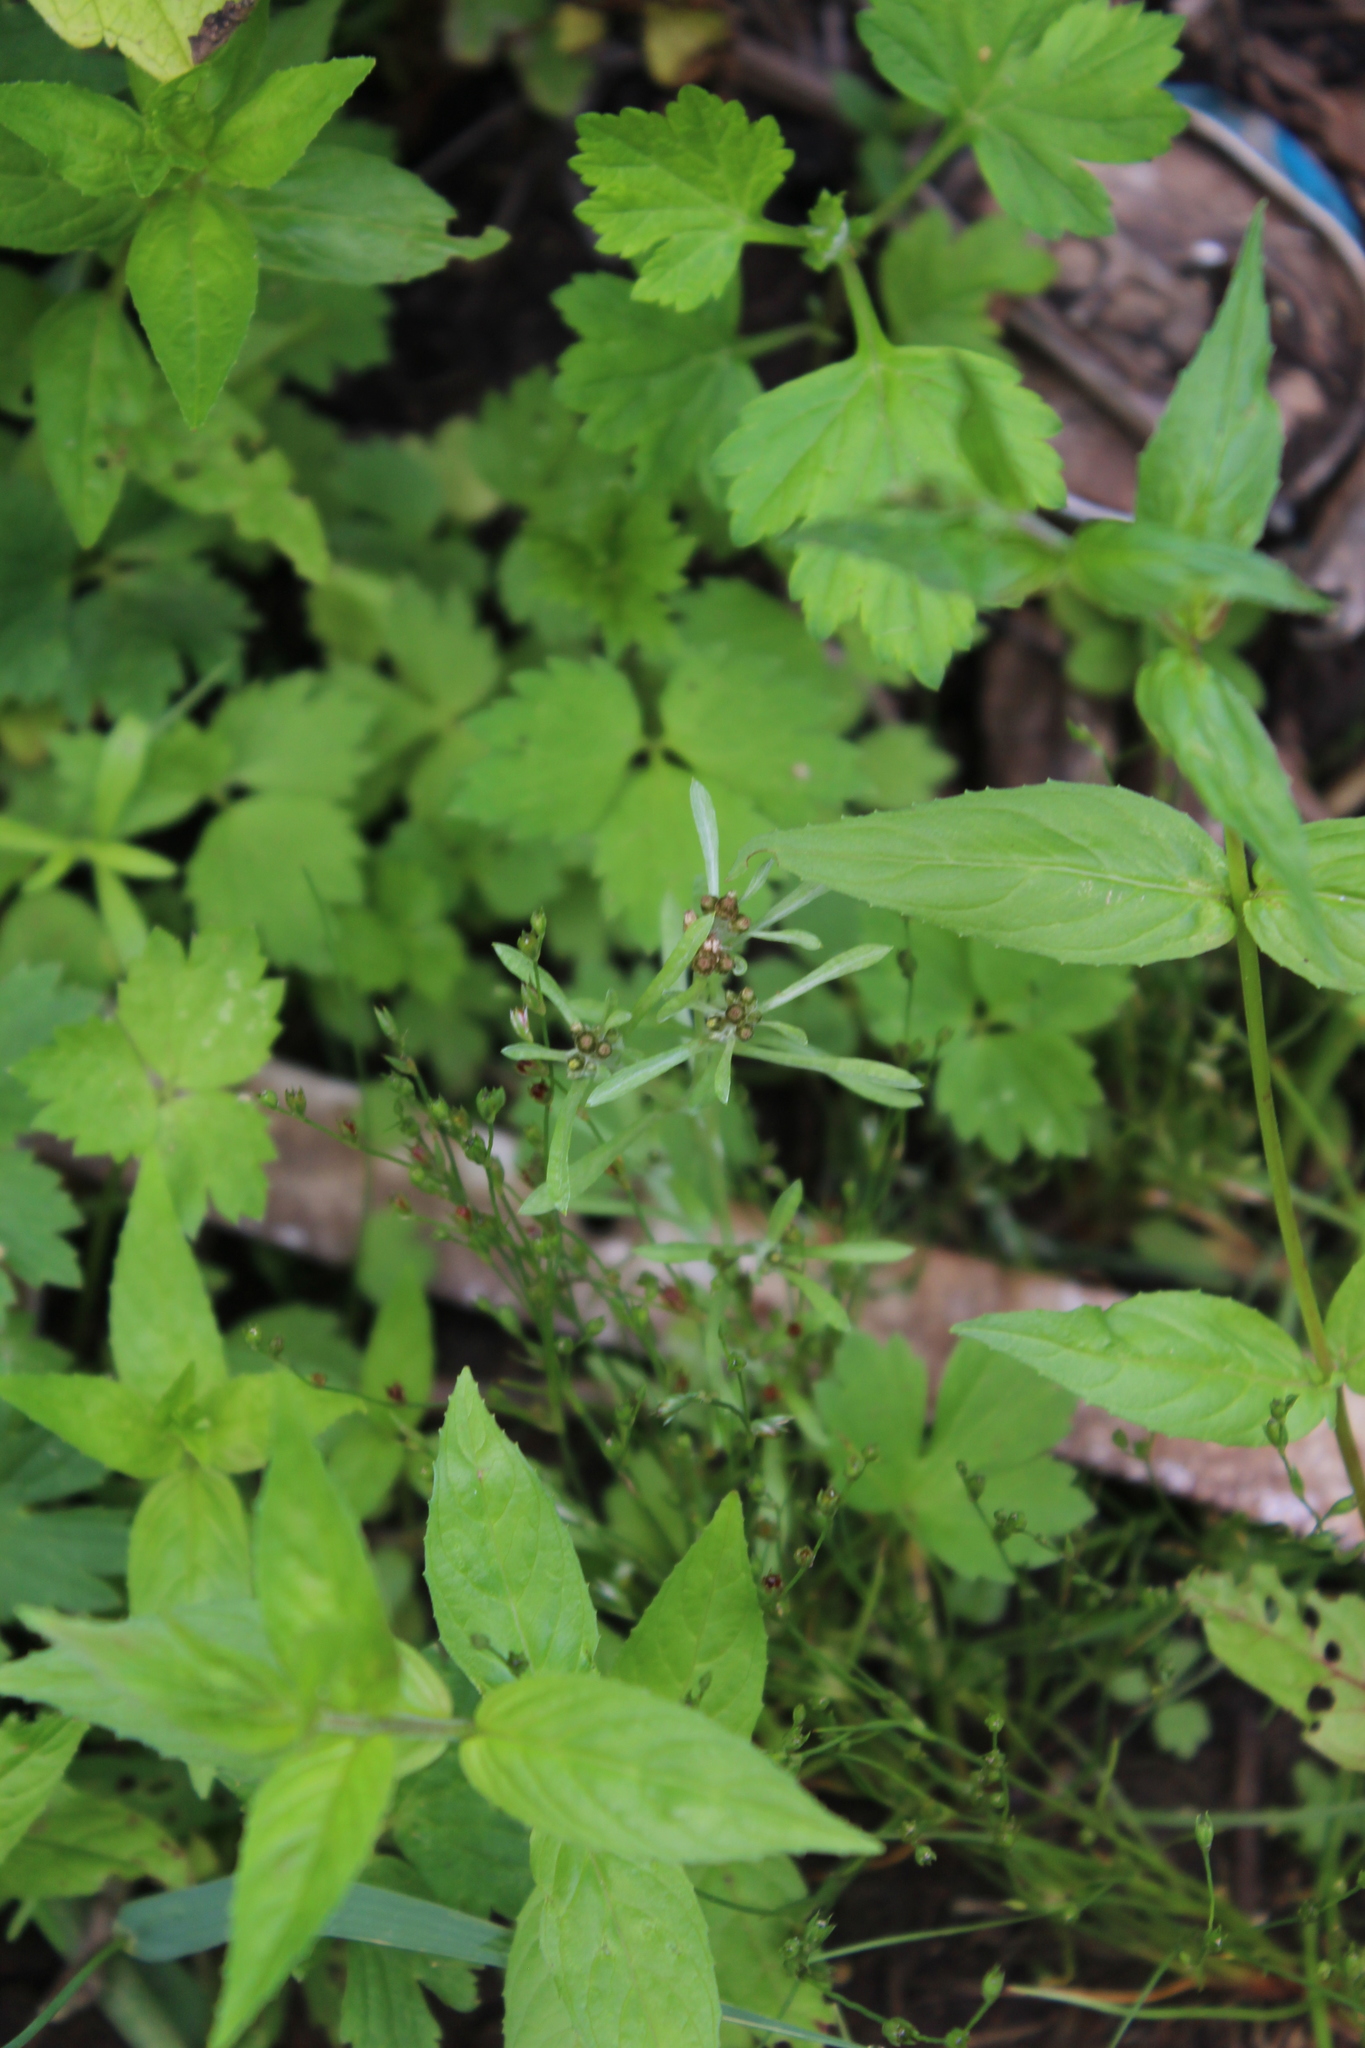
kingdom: Plantae
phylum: Tracheophyta
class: Magnoliopsida
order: Asterales
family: Asteraceae
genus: Gnaphalium
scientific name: Gnaphalium uliginosum
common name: Marsh cudweed
